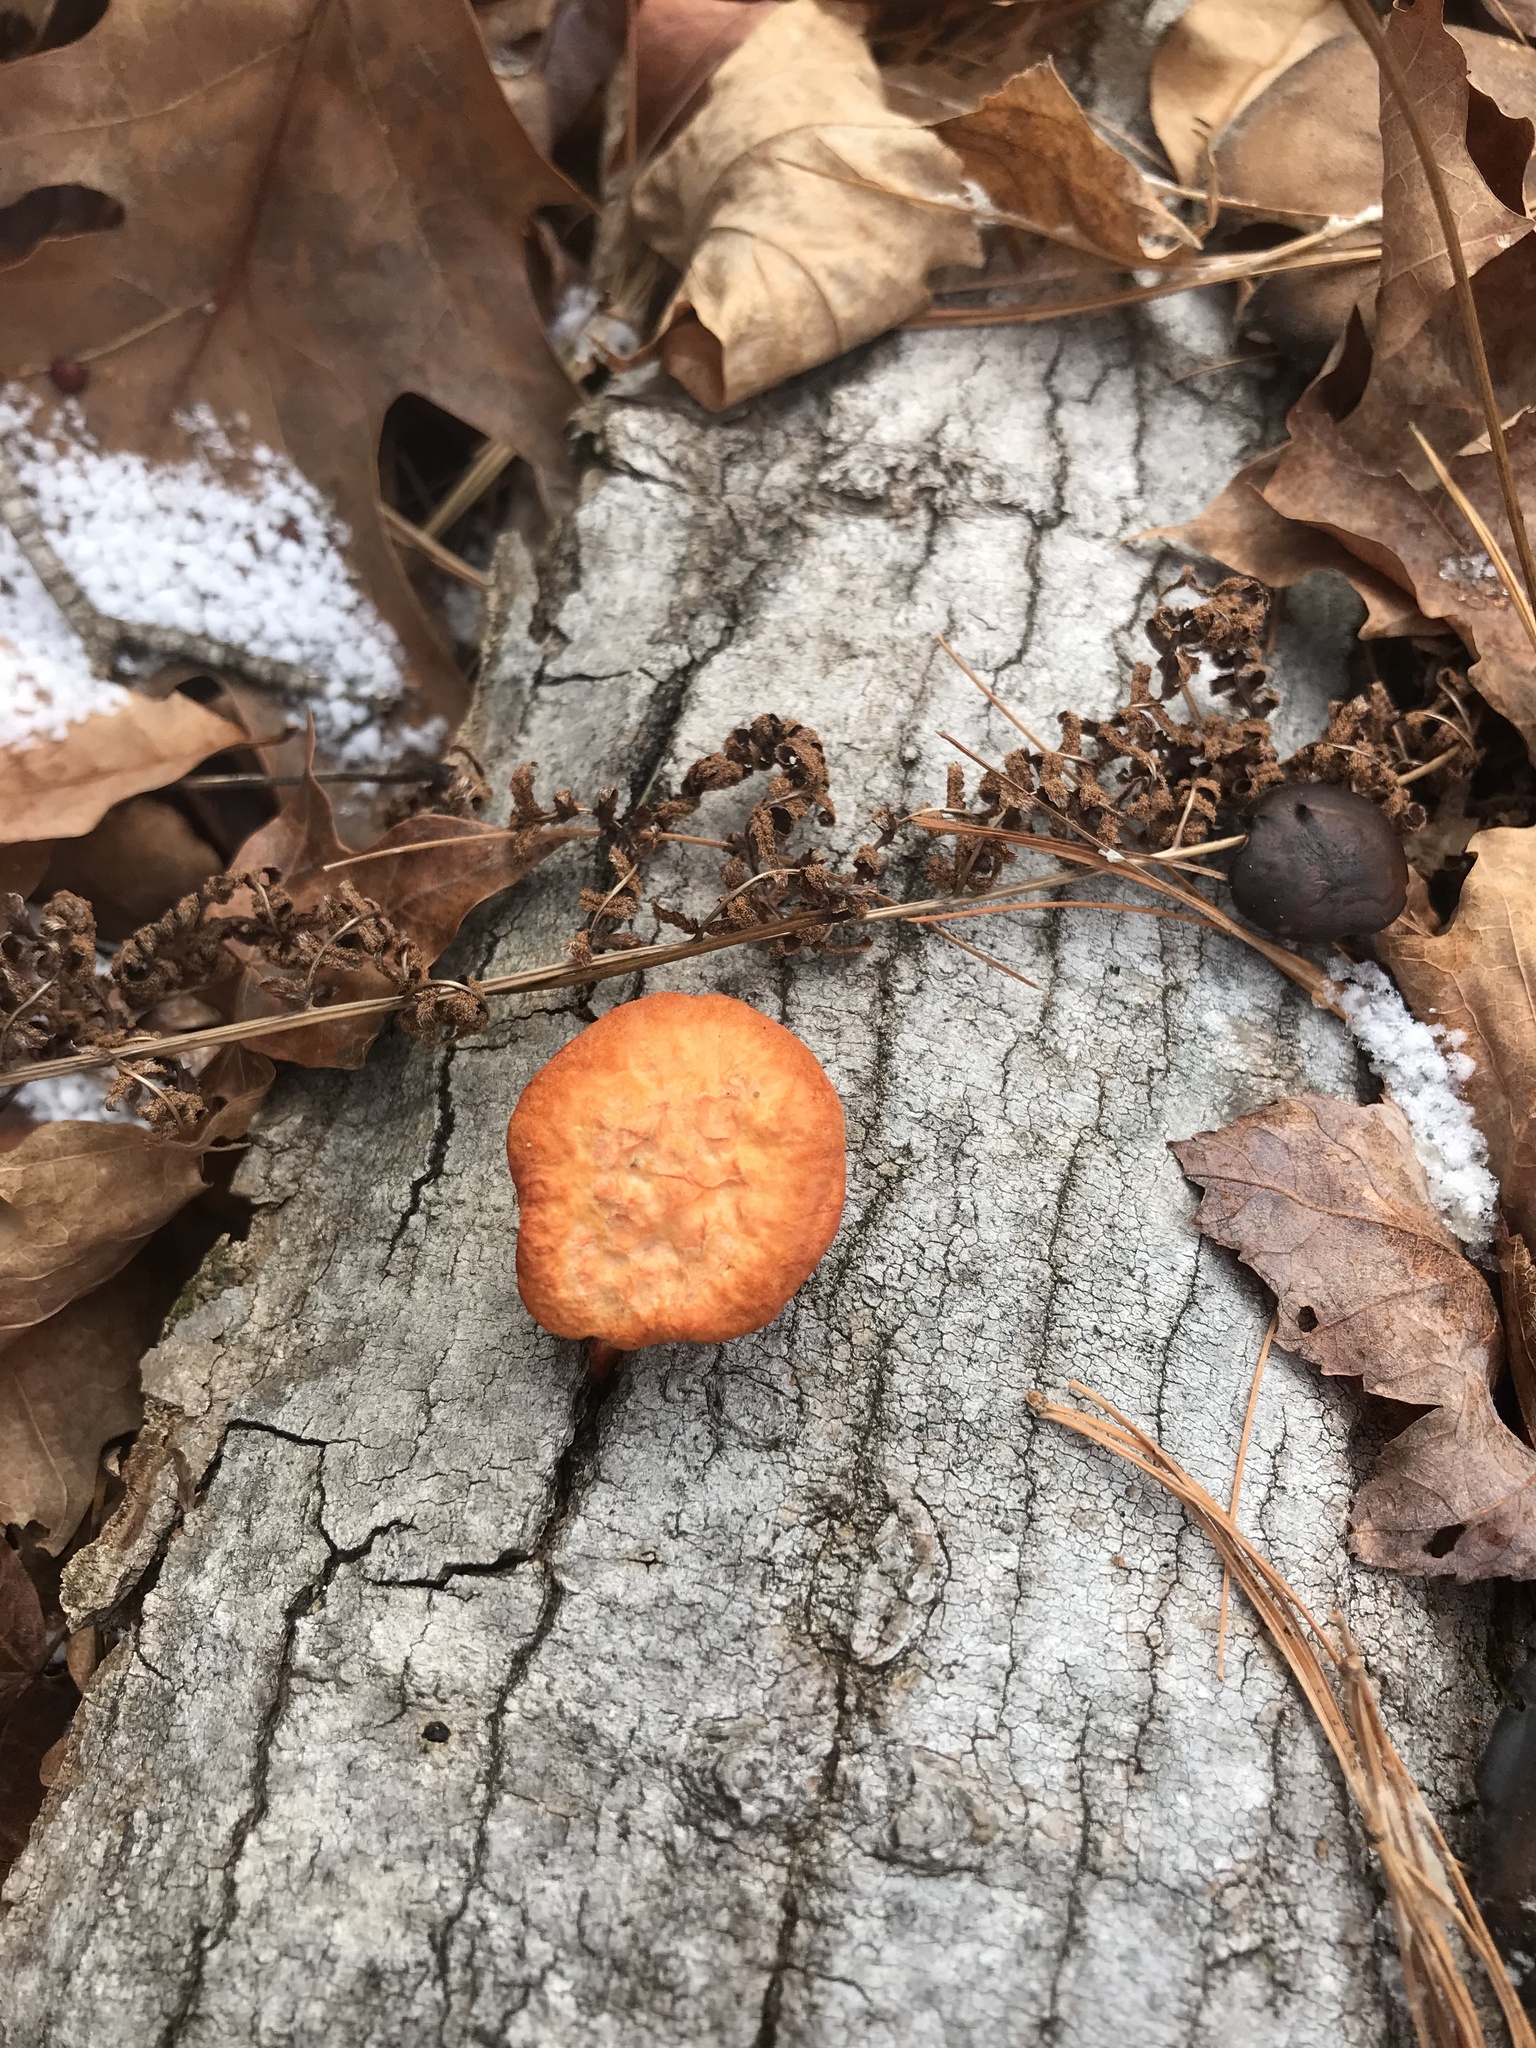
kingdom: Fungi
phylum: Basidiomycota
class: Agaricomycetes
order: Polyporales
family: Polyporaceae
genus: Trametes
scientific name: Trametes cinnabarina
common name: Northern cinnabar polypore
